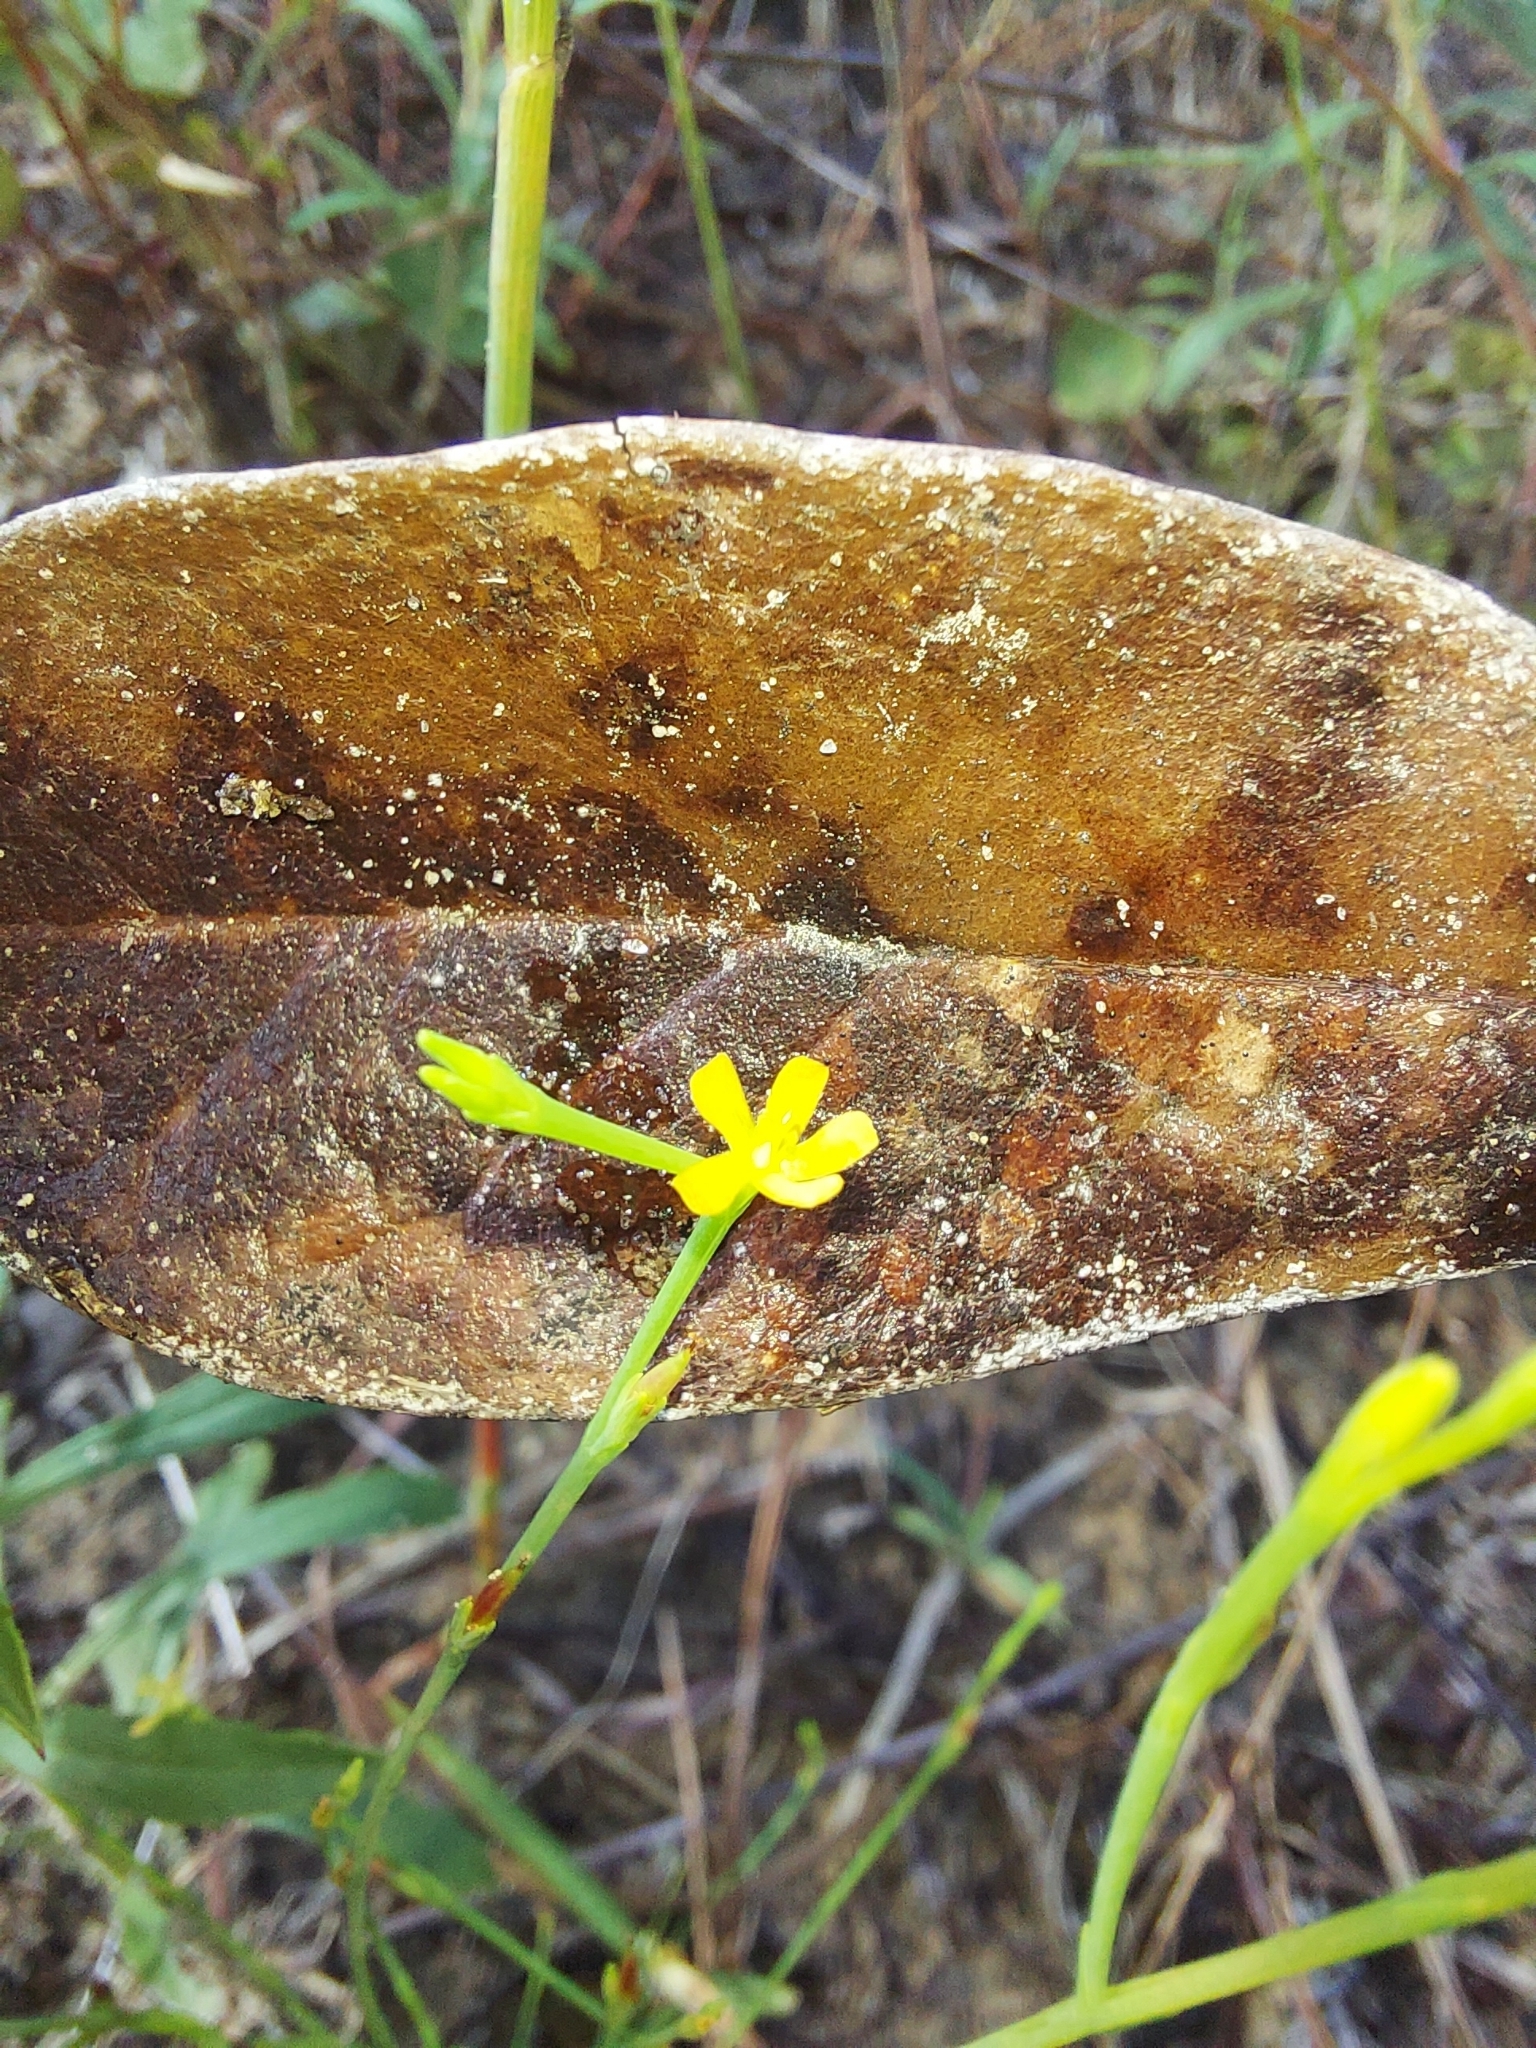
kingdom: Plantae
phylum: Tracheophyta
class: Magnoliopsida
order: Malpighiales
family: Hypericaceae
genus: Hypericum
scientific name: Hypericum gentianoides
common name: Gentian-leaved st. john's-wort
